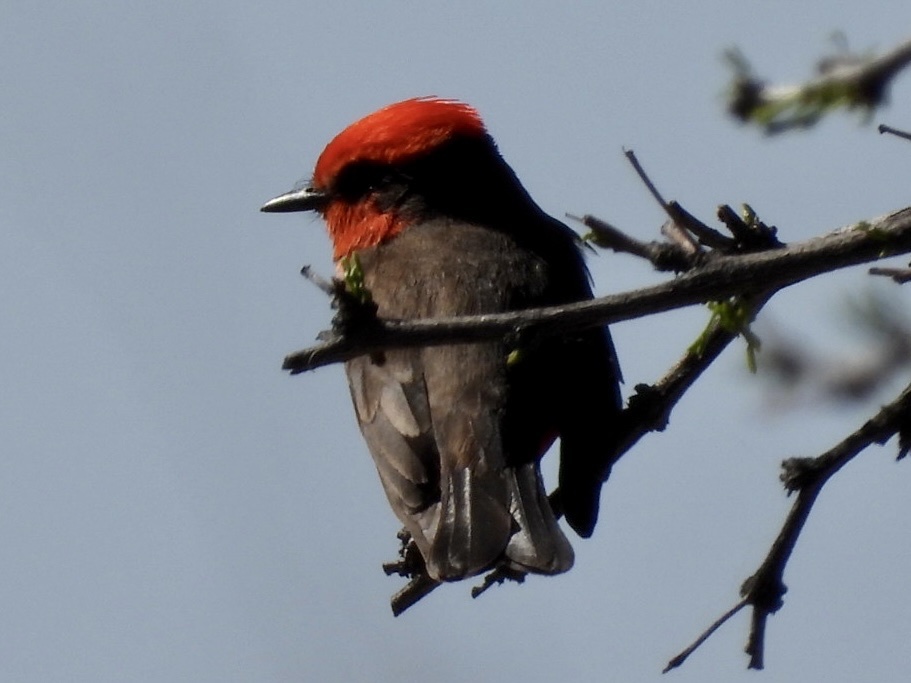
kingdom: Animalia
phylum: Chordata
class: Aves
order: Passeriformes
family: Tyrannidae
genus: Pyrocephalus
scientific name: Pyrocephalus rubinus
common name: Vermilion flycatcher
